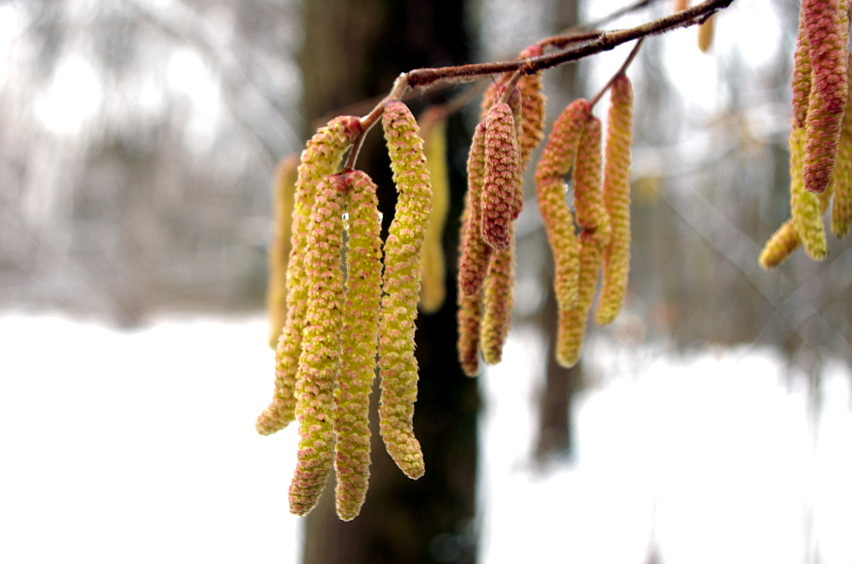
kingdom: Plantae
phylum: Tracheophyta
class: Magnoliopsida
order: Fagales
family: Betulaceae
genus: Corylus
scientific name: Corylus avellana
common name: European hazel
